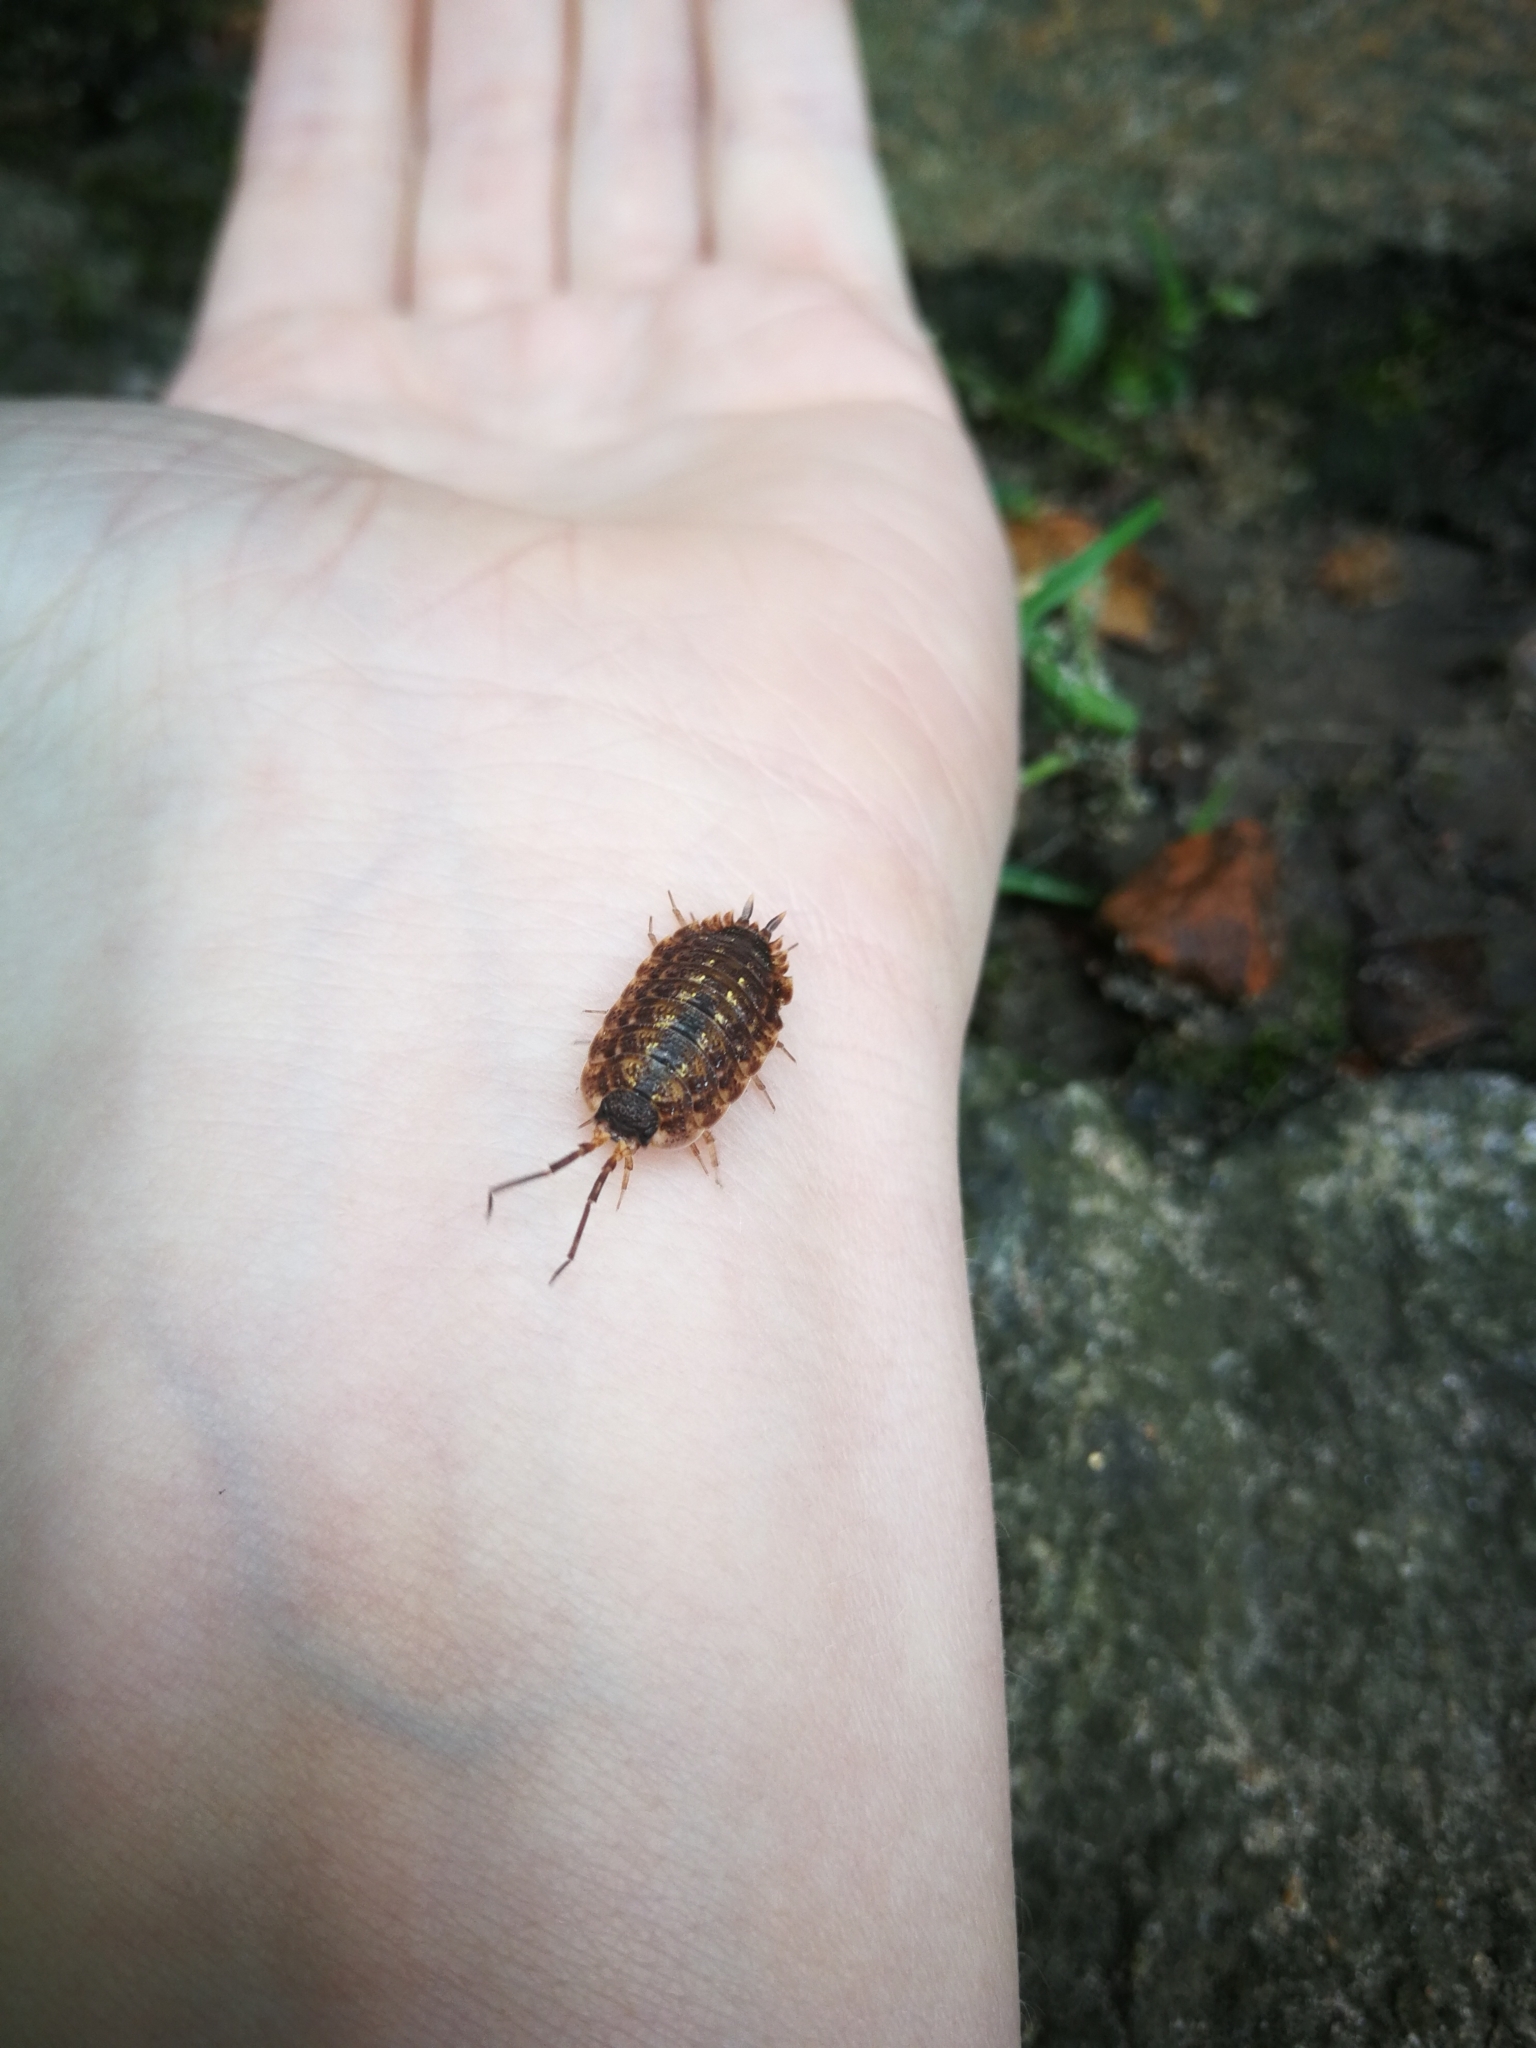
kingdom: Animalia
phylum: Arthropoda
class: Malacostraca
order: Isopoda
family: Porcellionidae
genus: Porcellio
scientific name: Porcellio spinicornis
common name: Painted woodlouse
